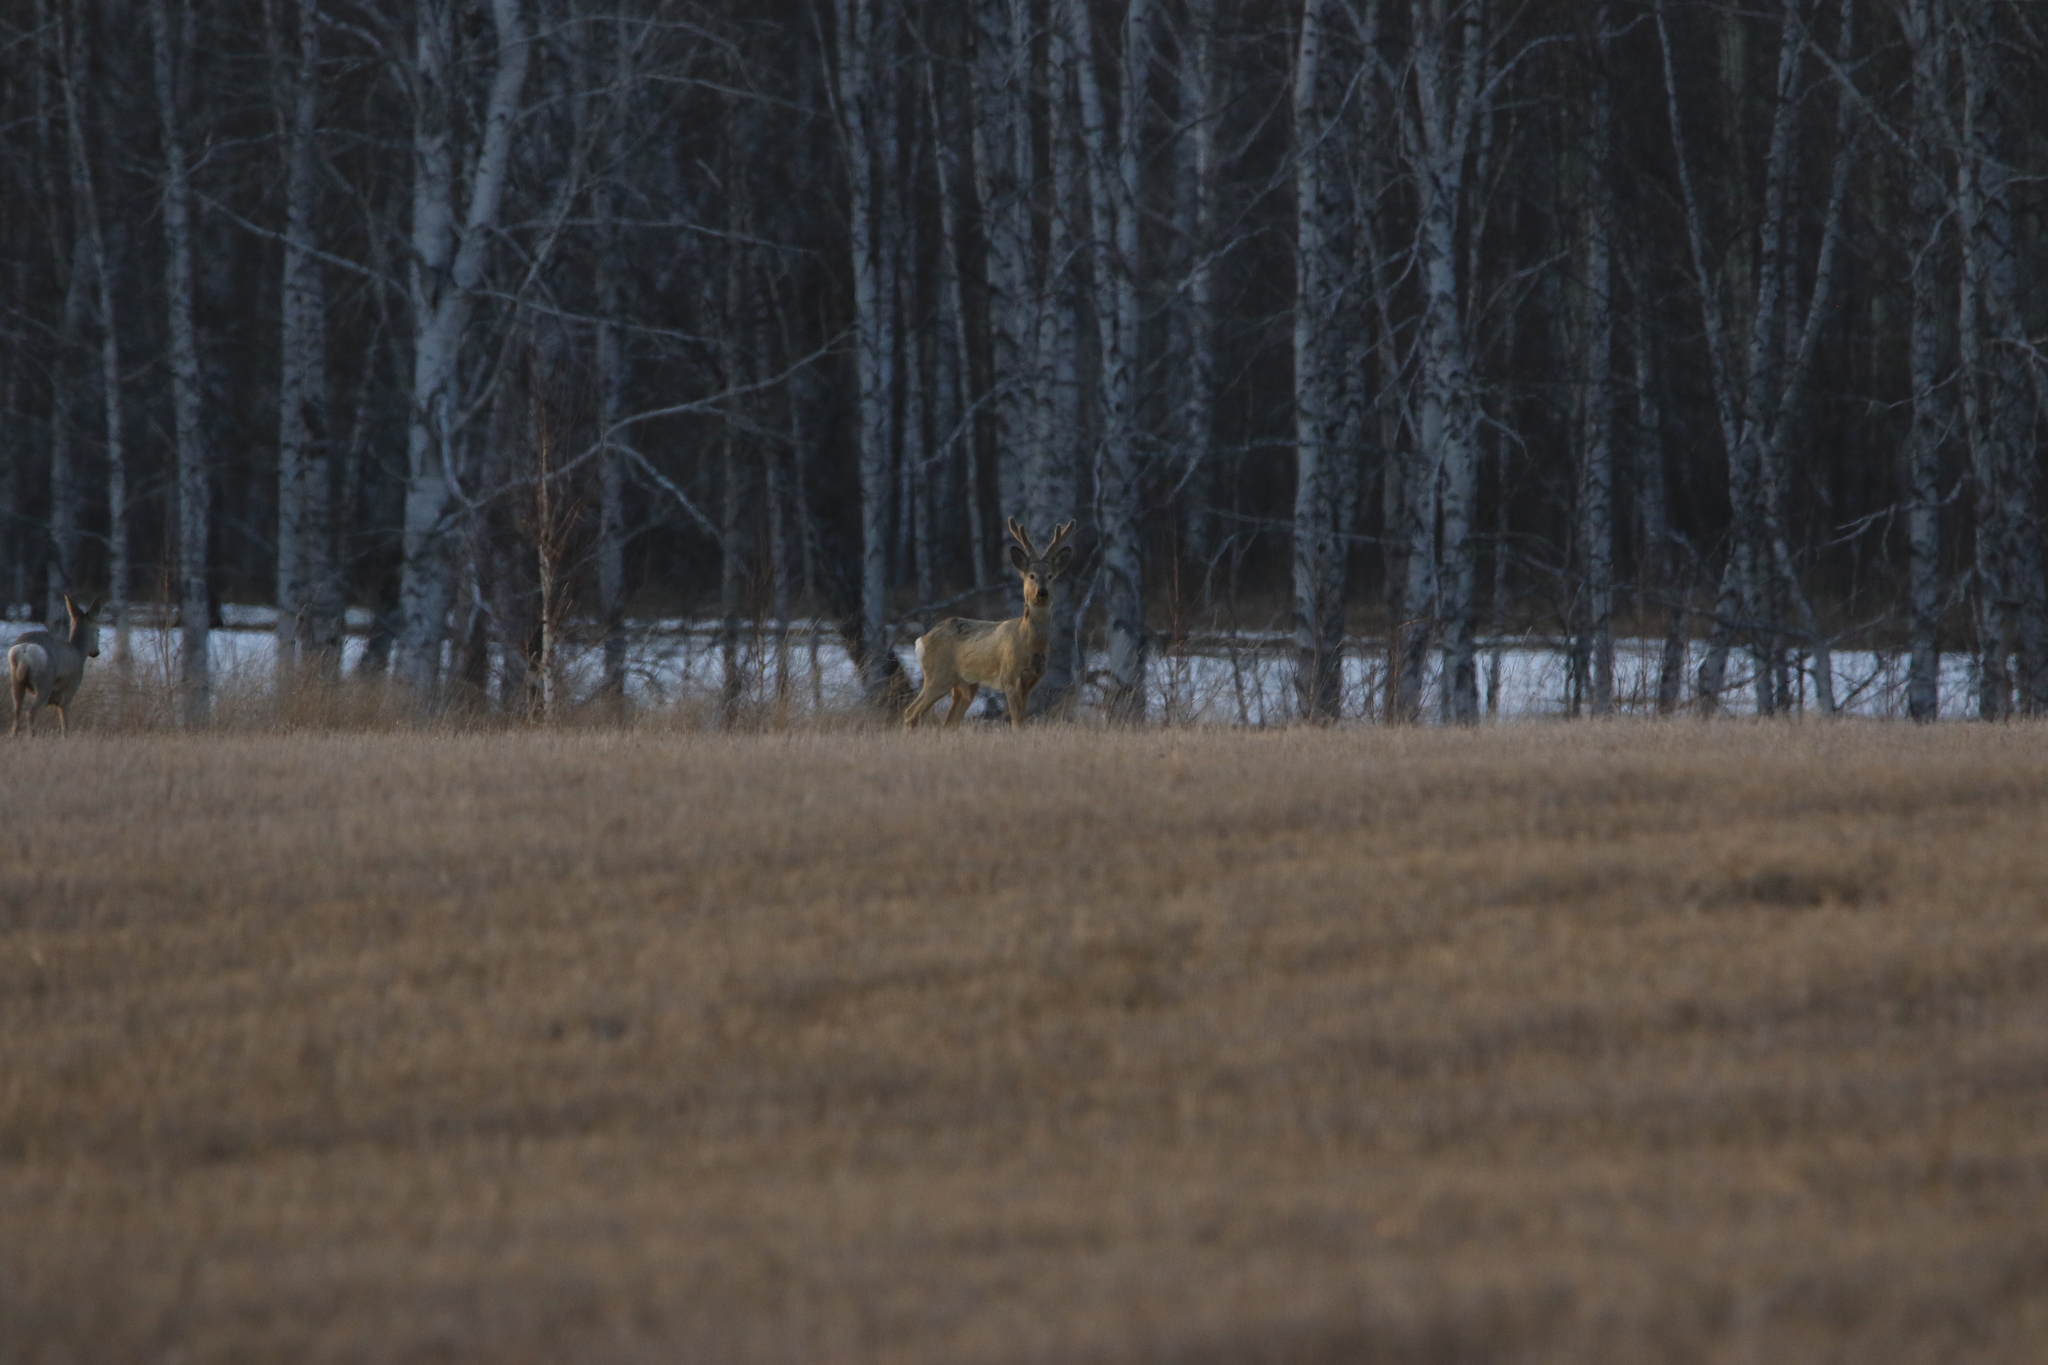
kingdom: Animalia
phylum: Chordata
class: Mammalia
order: Artiodactyla
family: Cervidae
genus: Capreolus
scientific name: Capreolus pygargus
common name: Siberian roe
